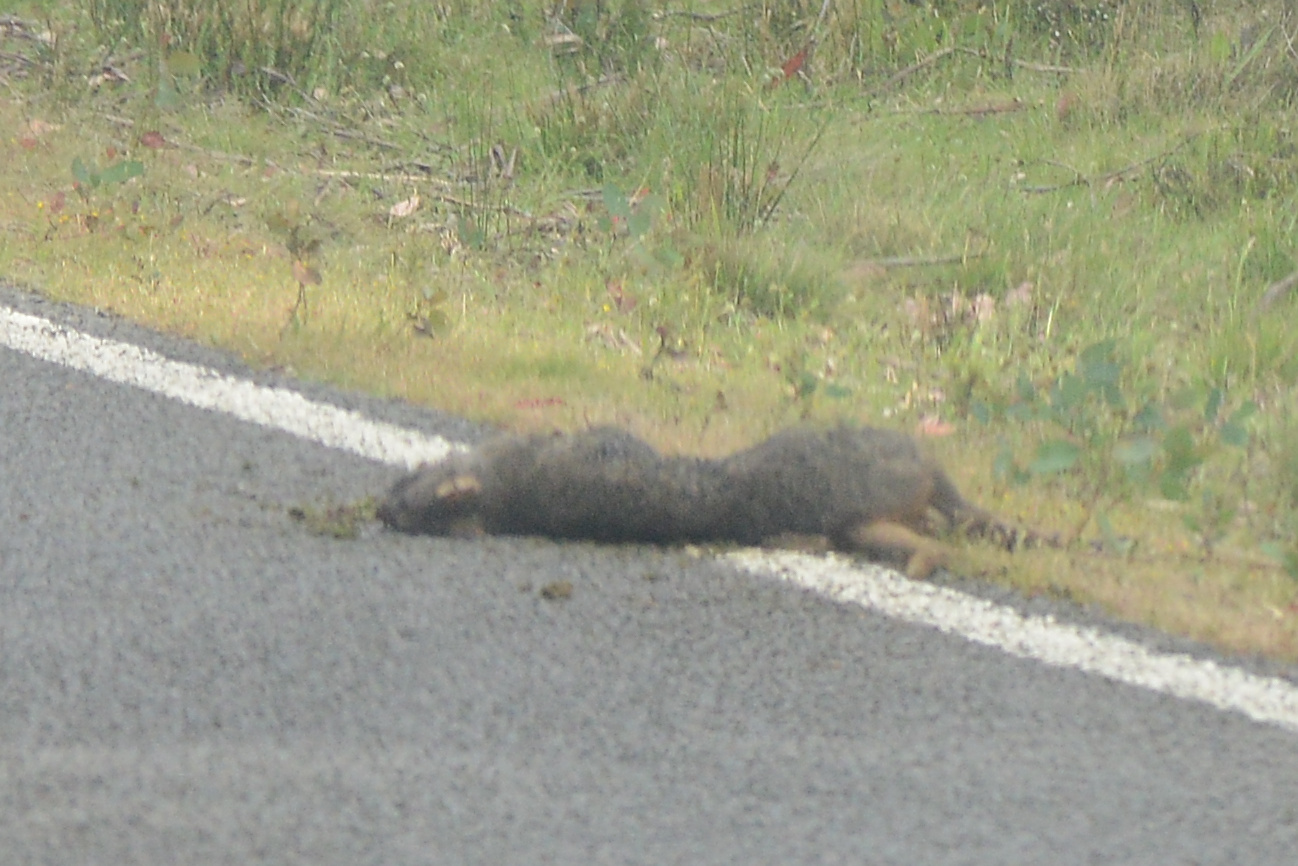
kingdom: Animalia
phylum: Chordata
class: Mammalia
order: Diprotodontia
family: Macropodidae
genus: Thylogale
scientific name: Thylogale billardierii
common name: Tasmanian pademelon
